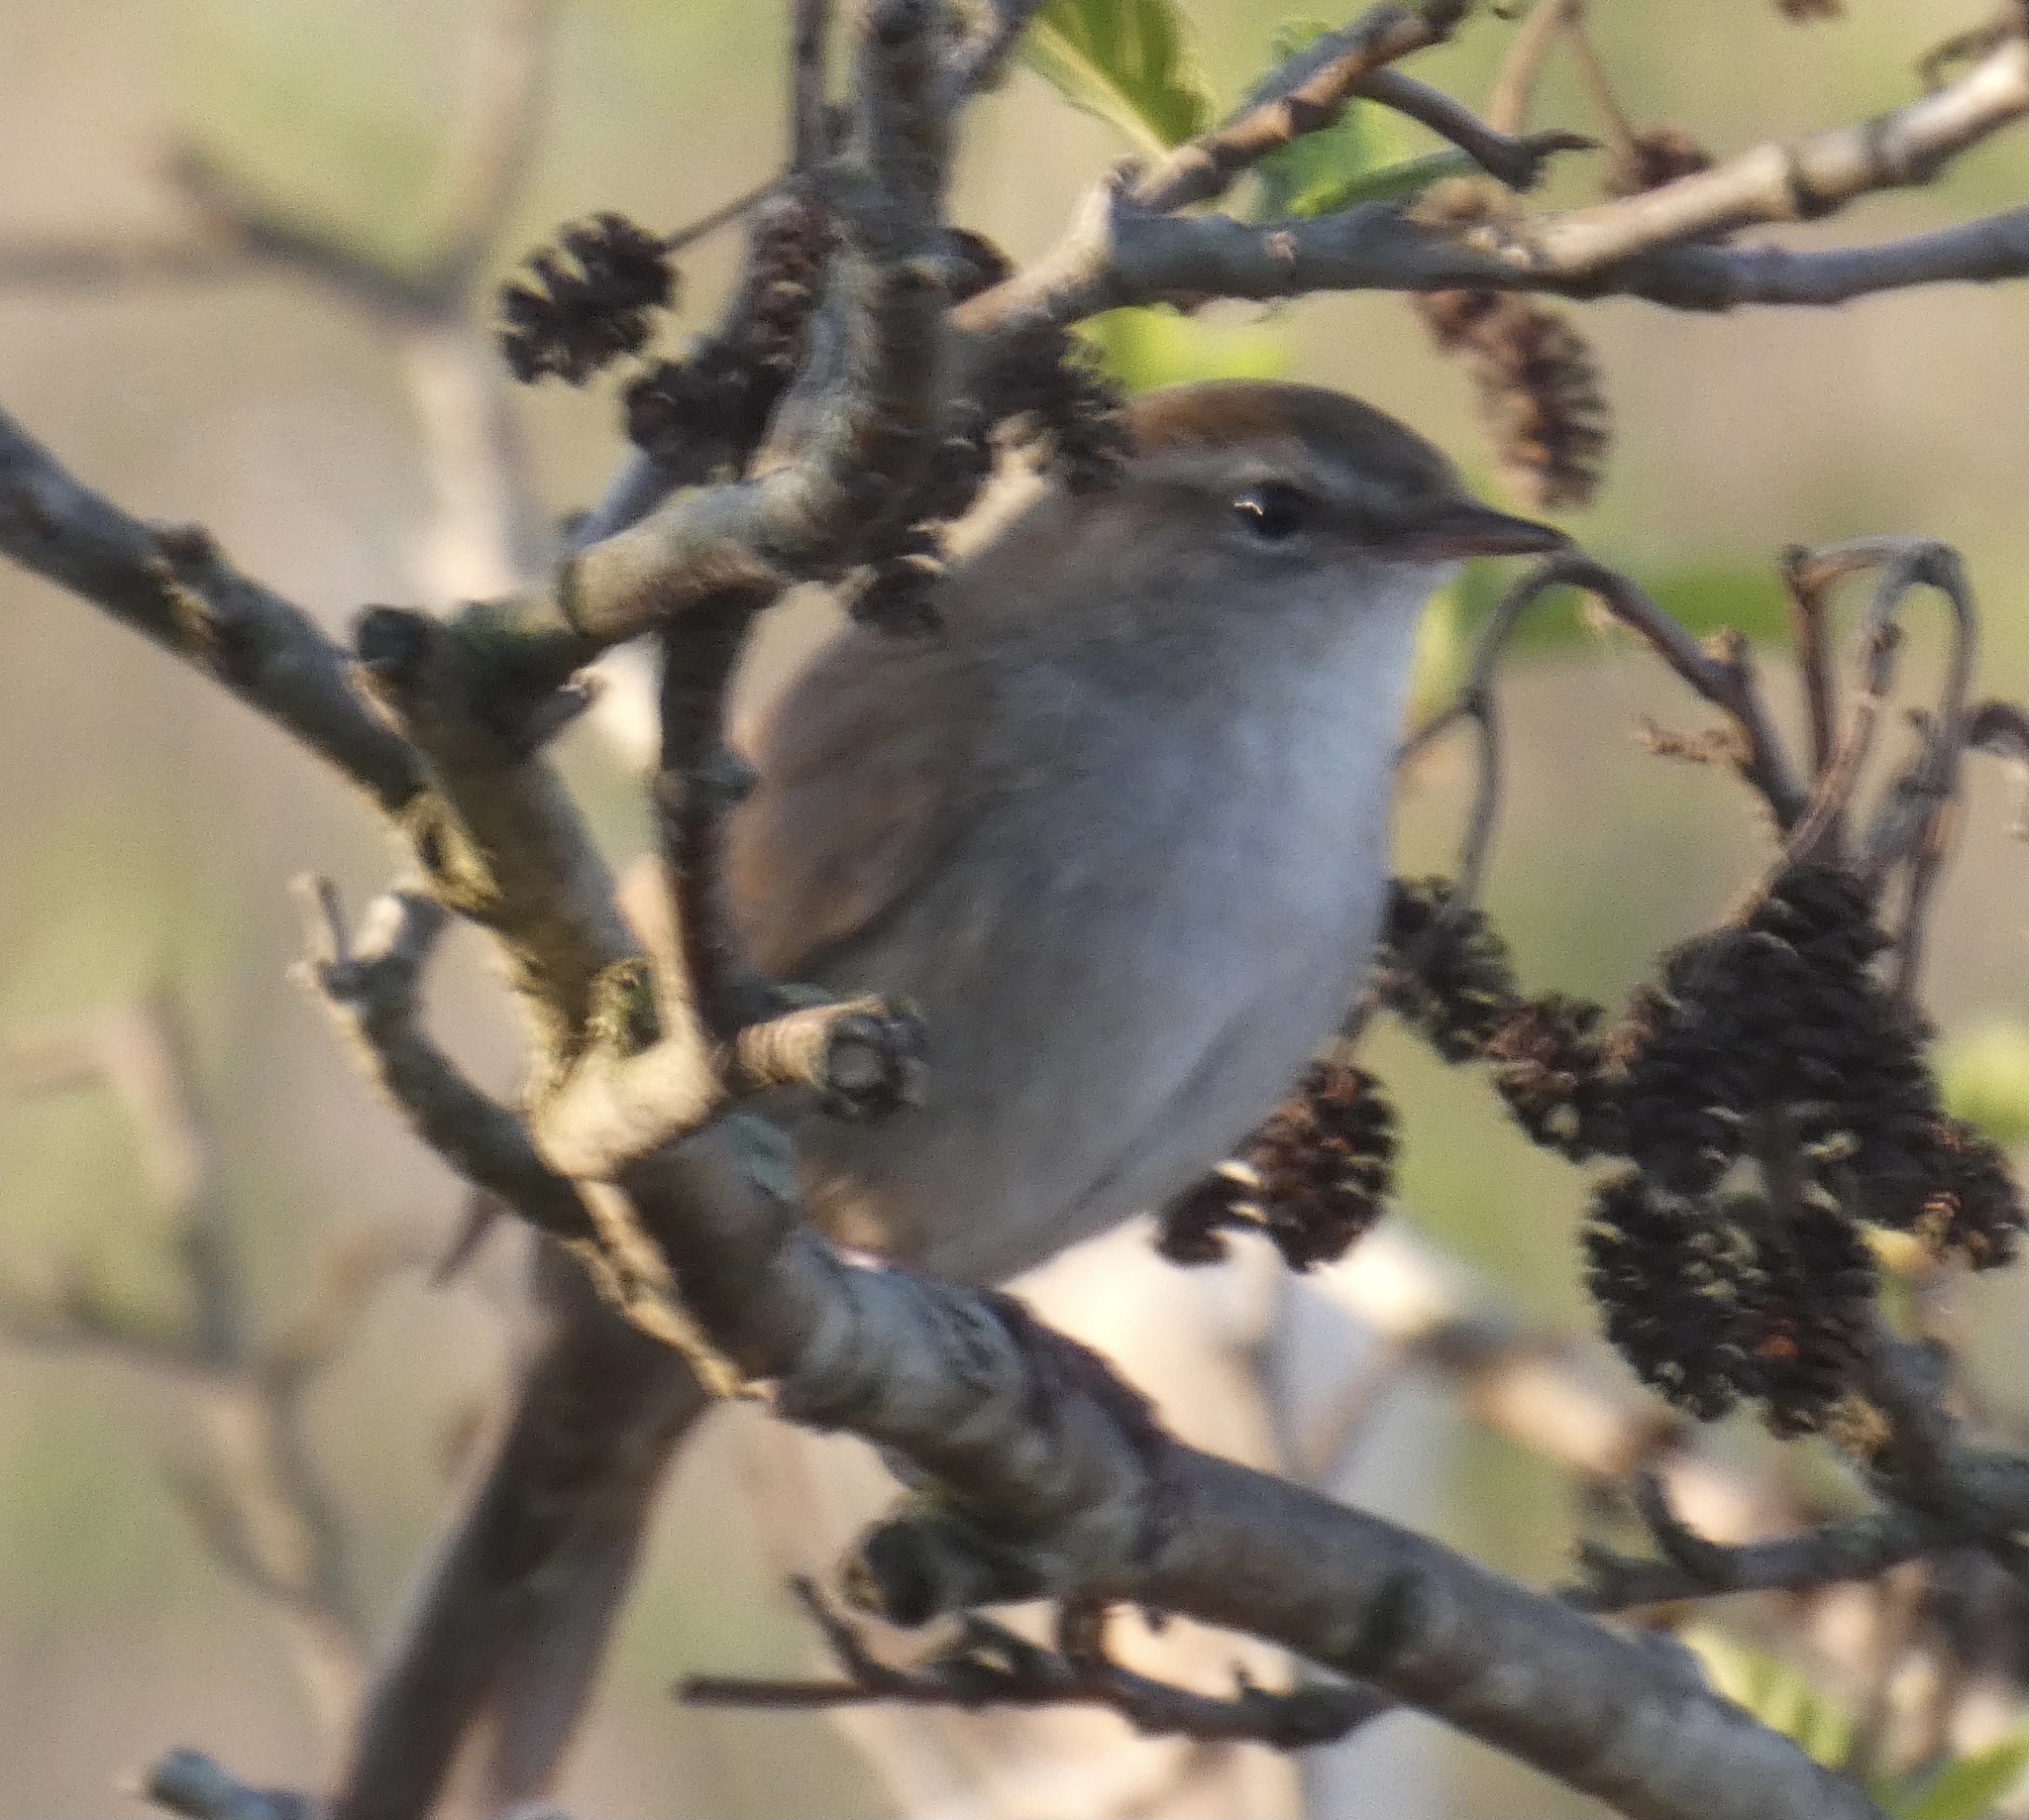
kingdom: Animalia
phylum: Chordata
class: Aves
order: Passeriformes
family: Cettiidae
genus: Cettia
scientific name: Cettia cetti
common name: Cetti's warbler
